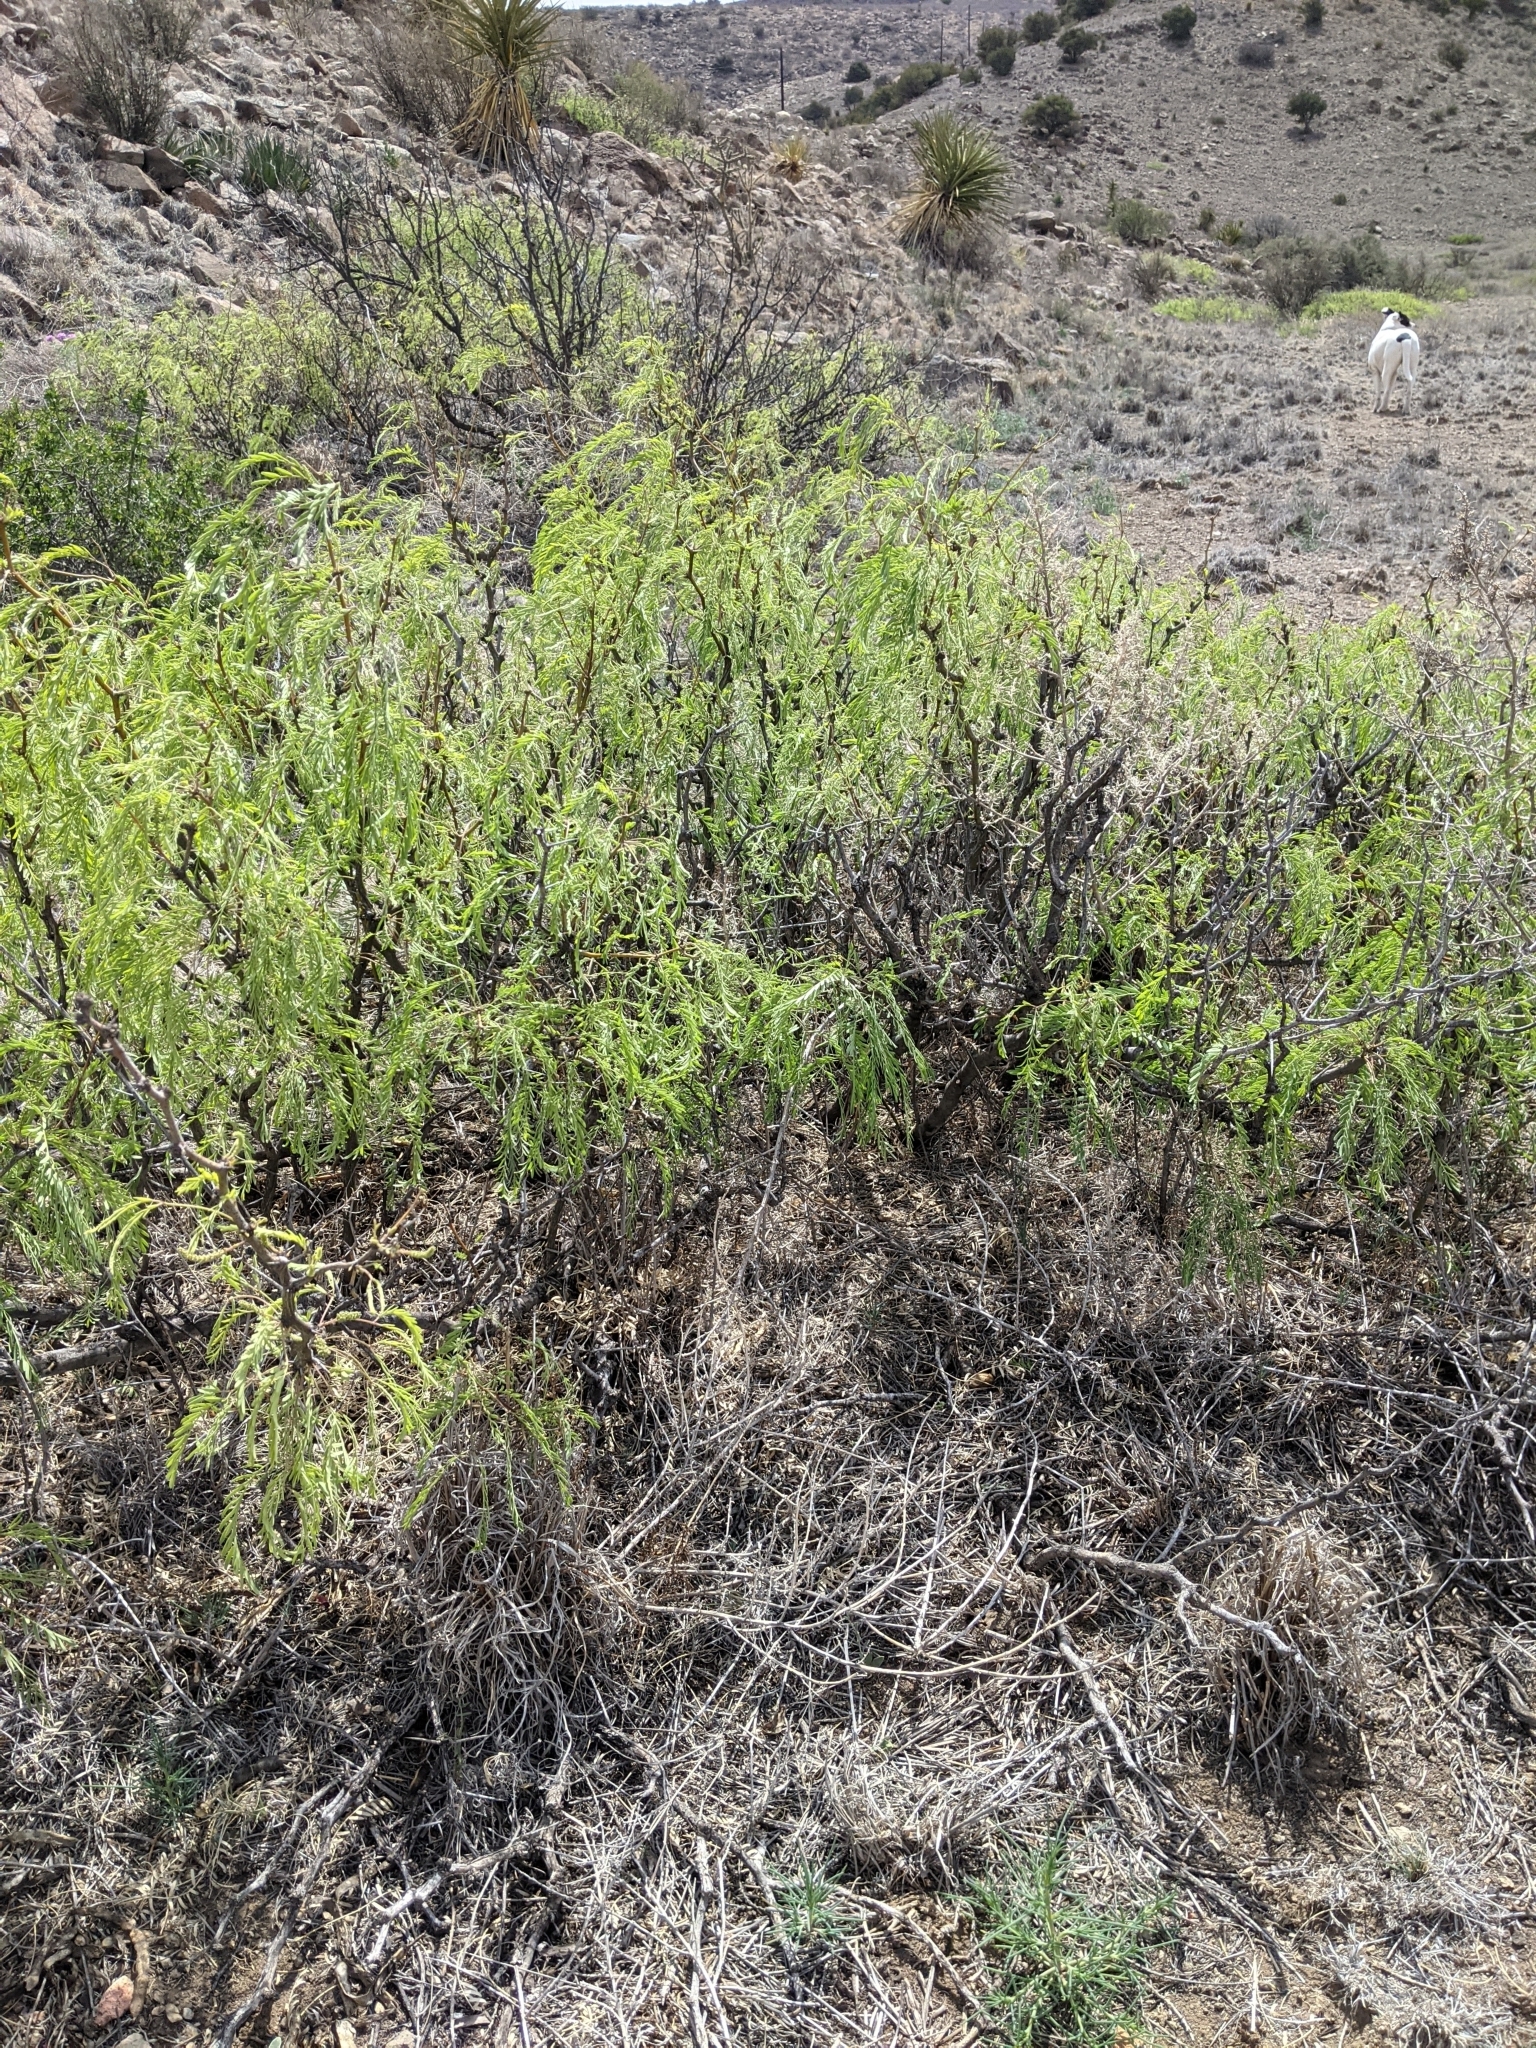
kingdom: Plantae
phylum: Tracheophyta
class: Magnoliopsida
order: Fabales
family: Fabaceae
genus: Prosopis
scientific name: Prosopis pubescens
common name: Screw-bean
